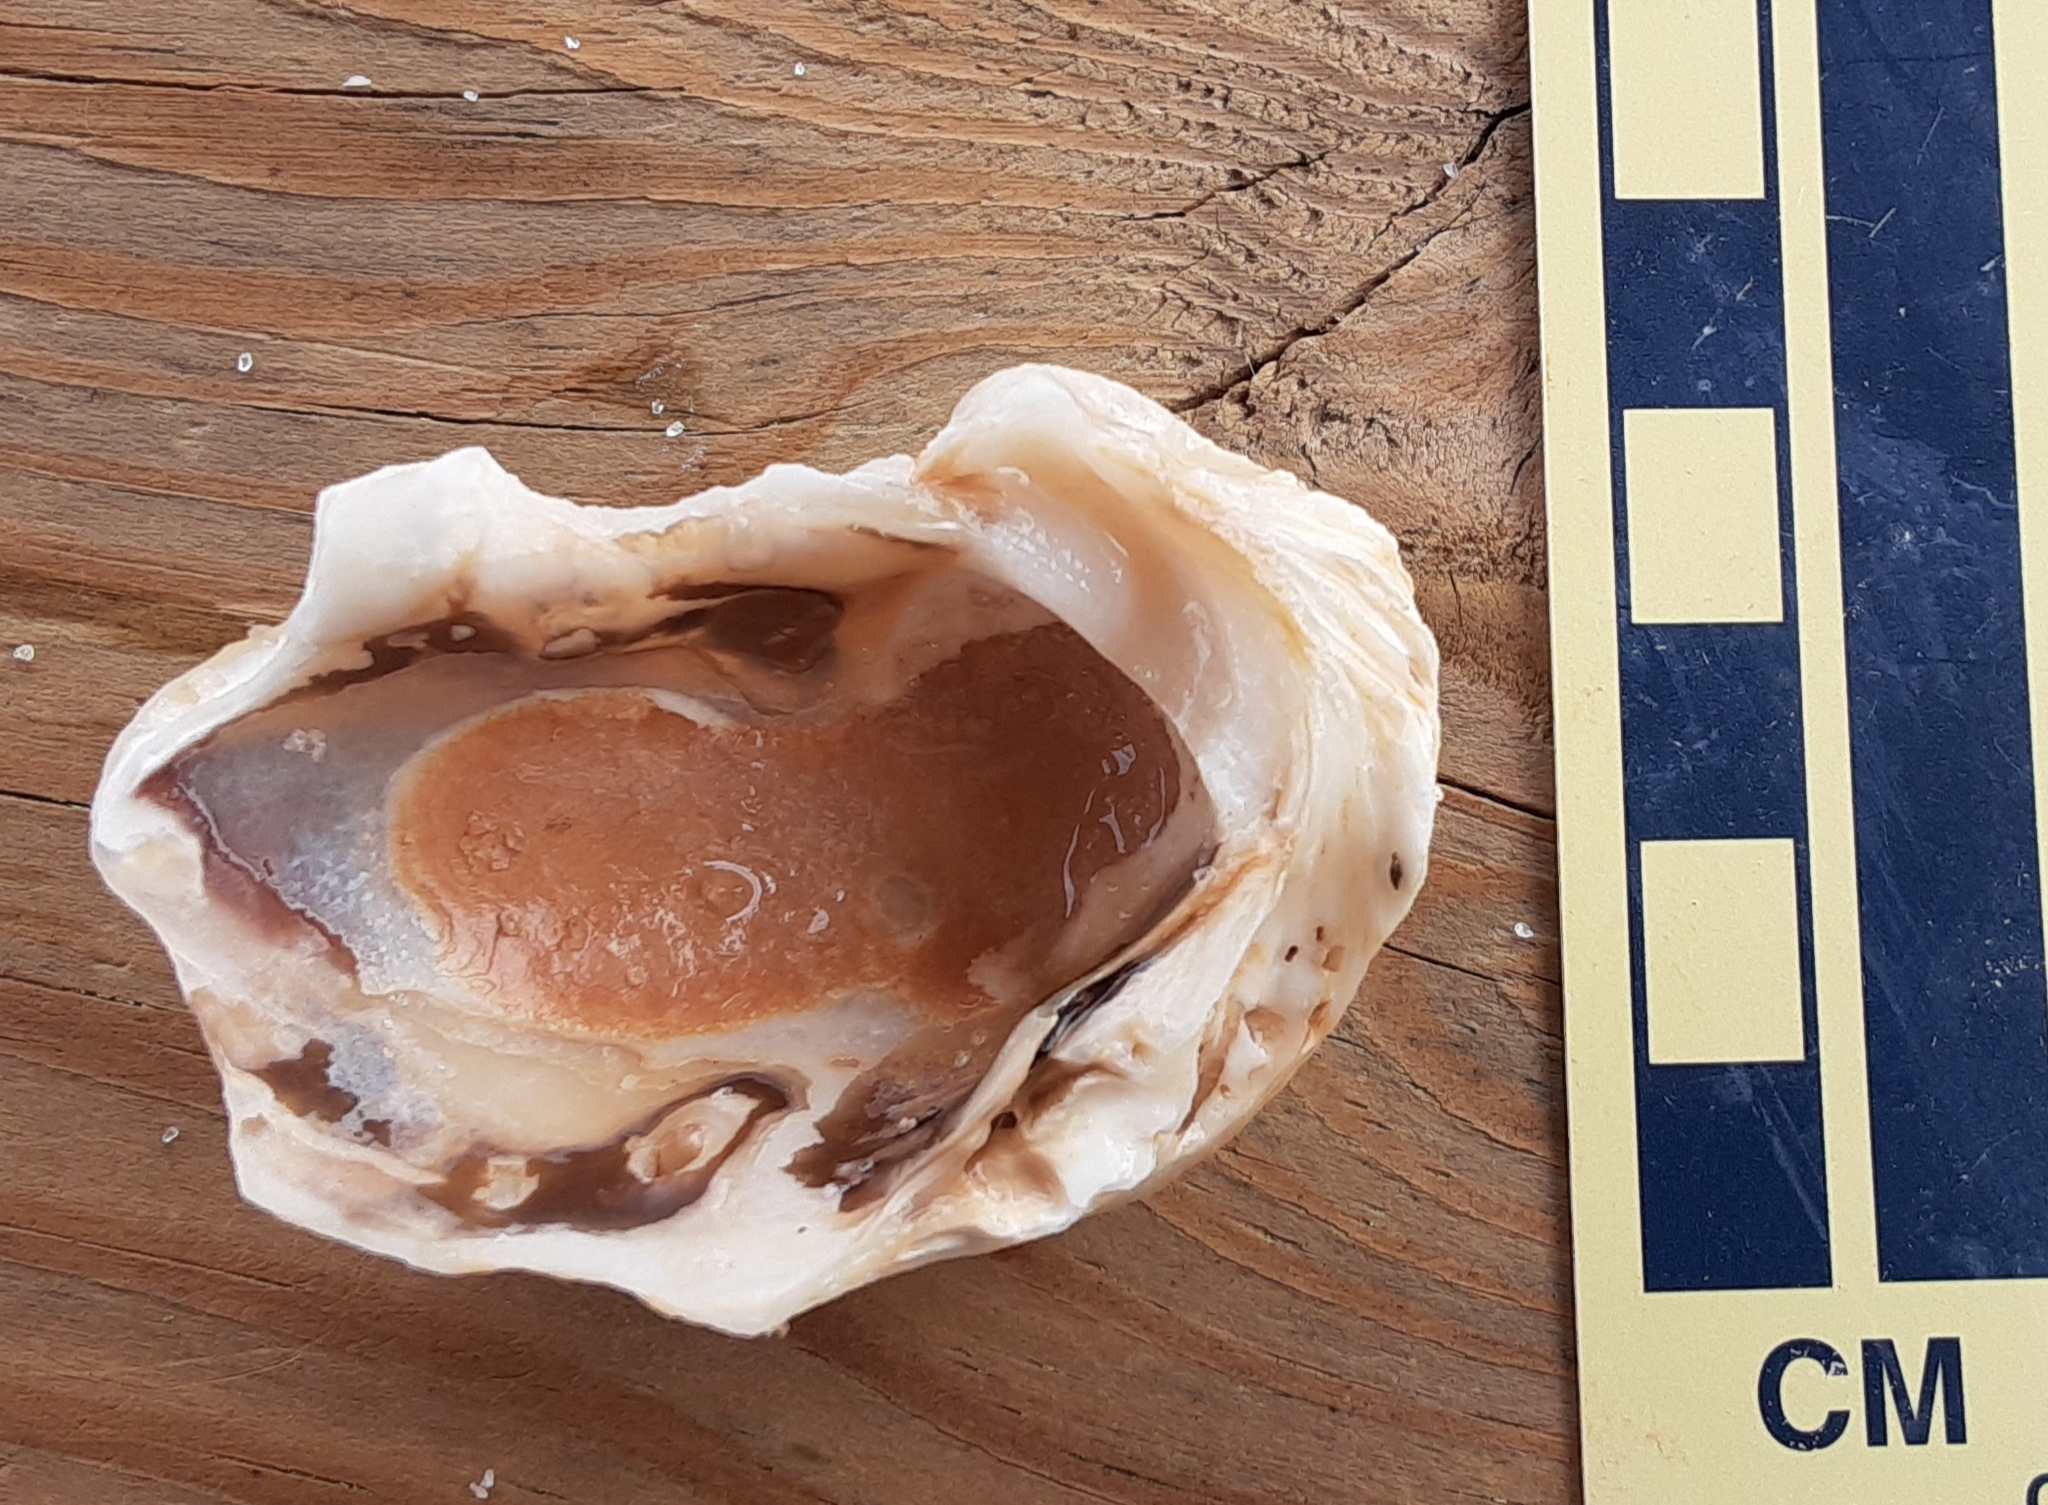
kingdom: Animalia
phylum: Mollusca
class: Bivalvia
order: Ostreida
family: Ostreidae
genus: Crassostrea
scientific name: Crassostrea virginica
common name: American oyster
